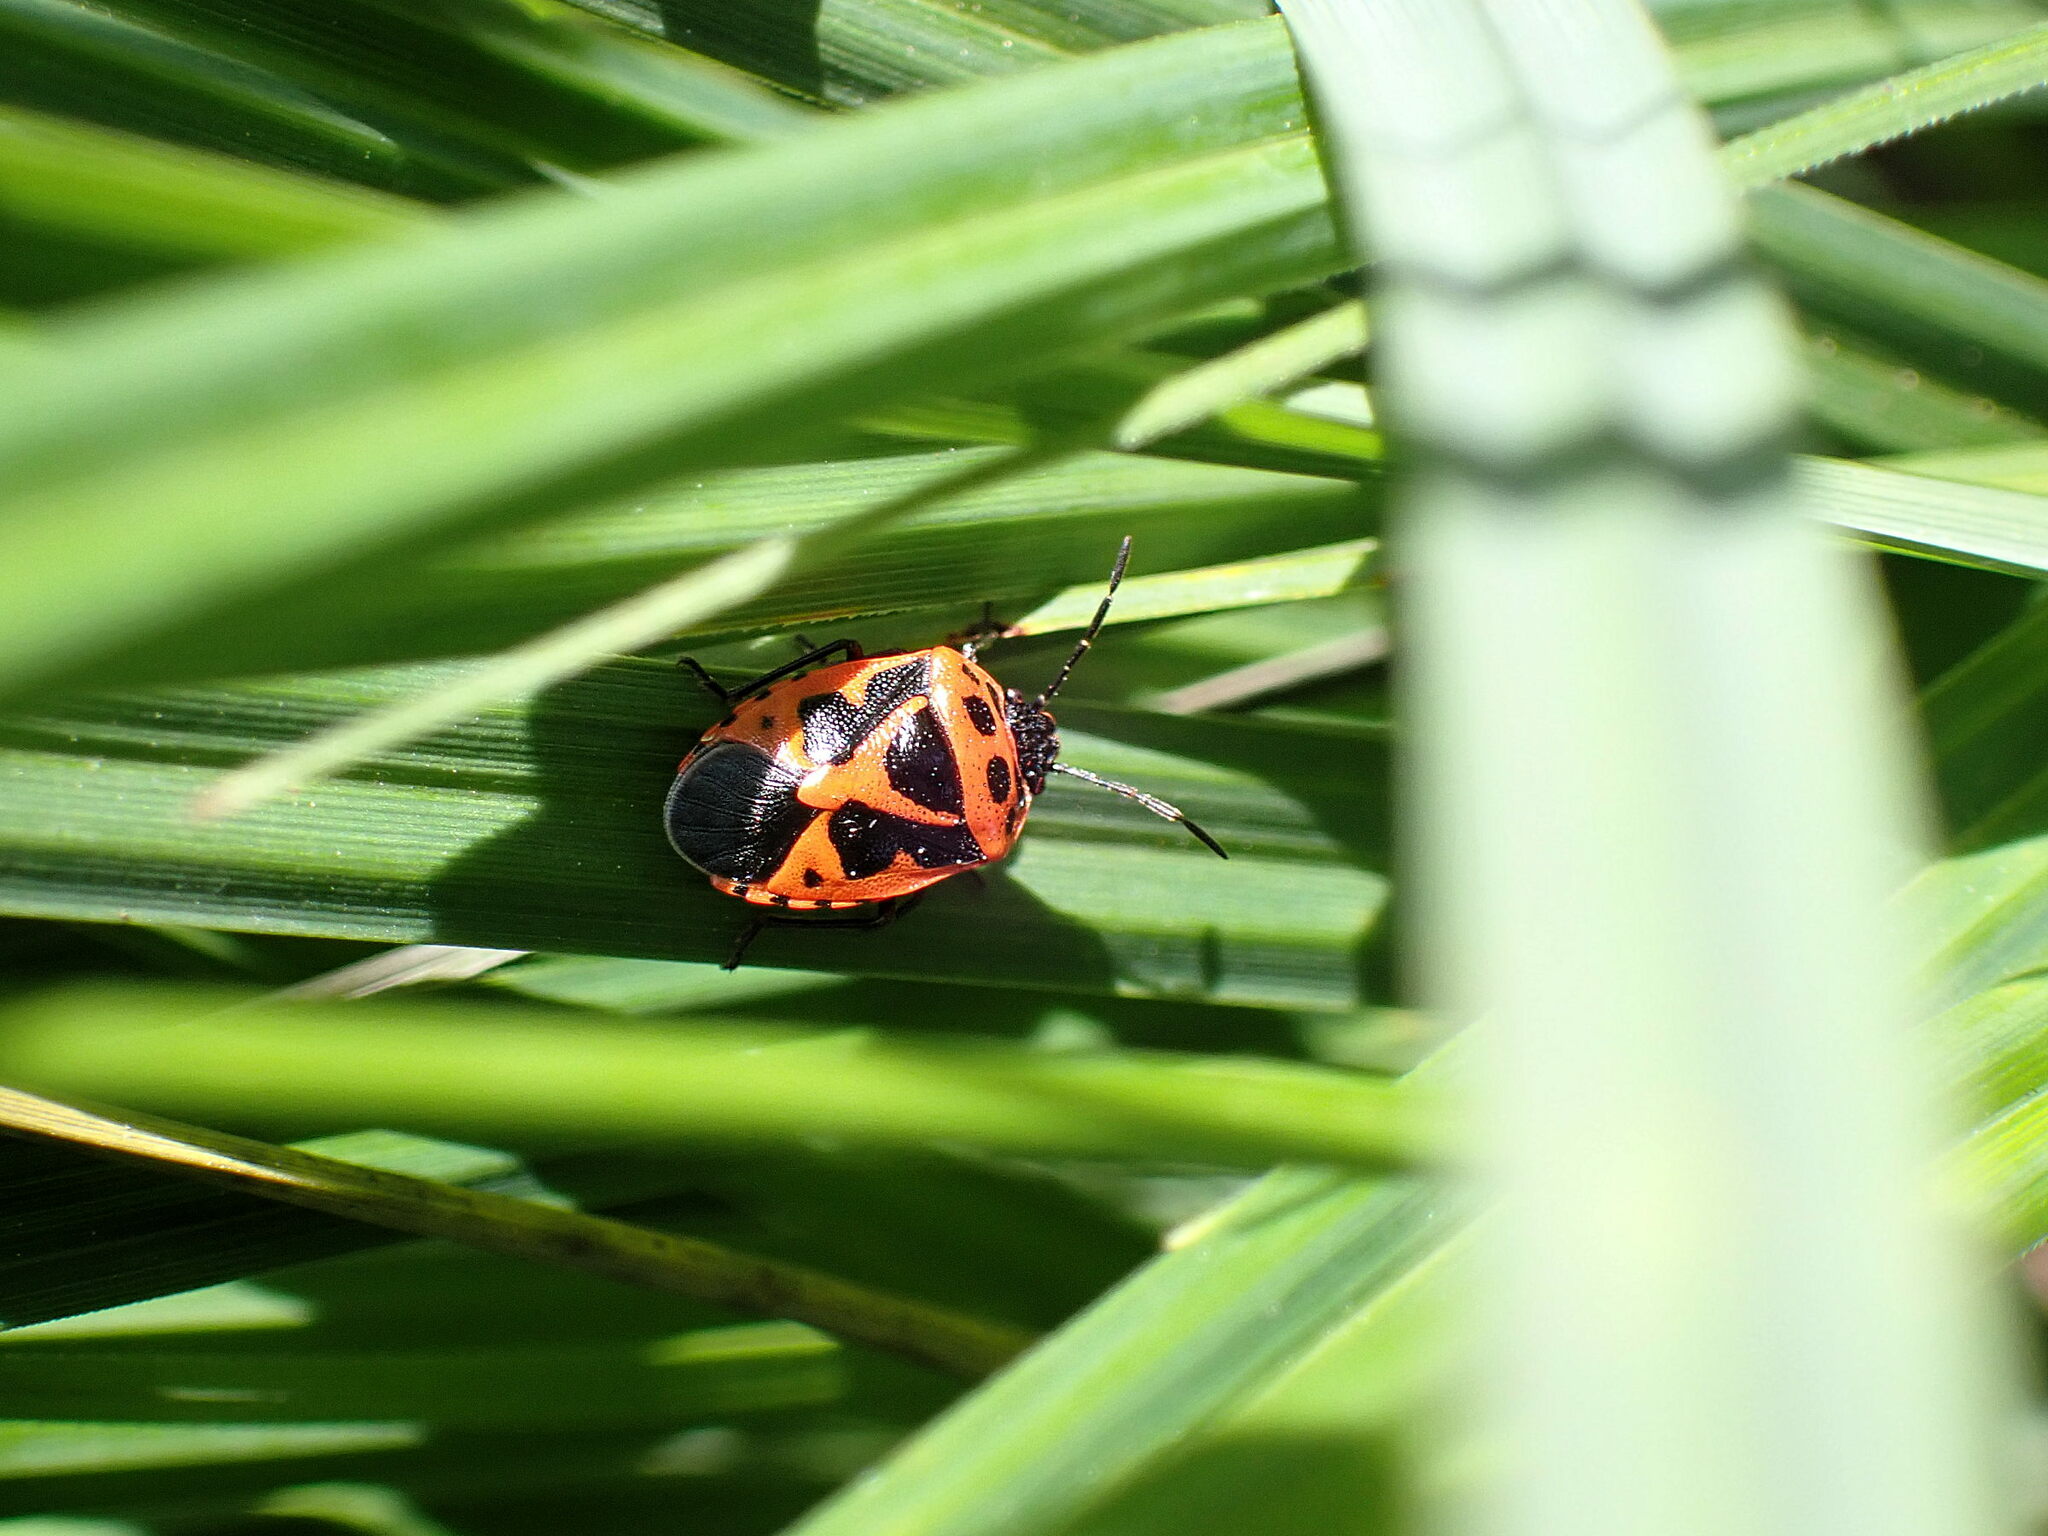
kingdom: Animalia
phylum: Arthropoda
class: Insecta
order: Hemiptera
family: Pentatomidae
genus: Eurydema
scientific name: Eurydema dominulus
